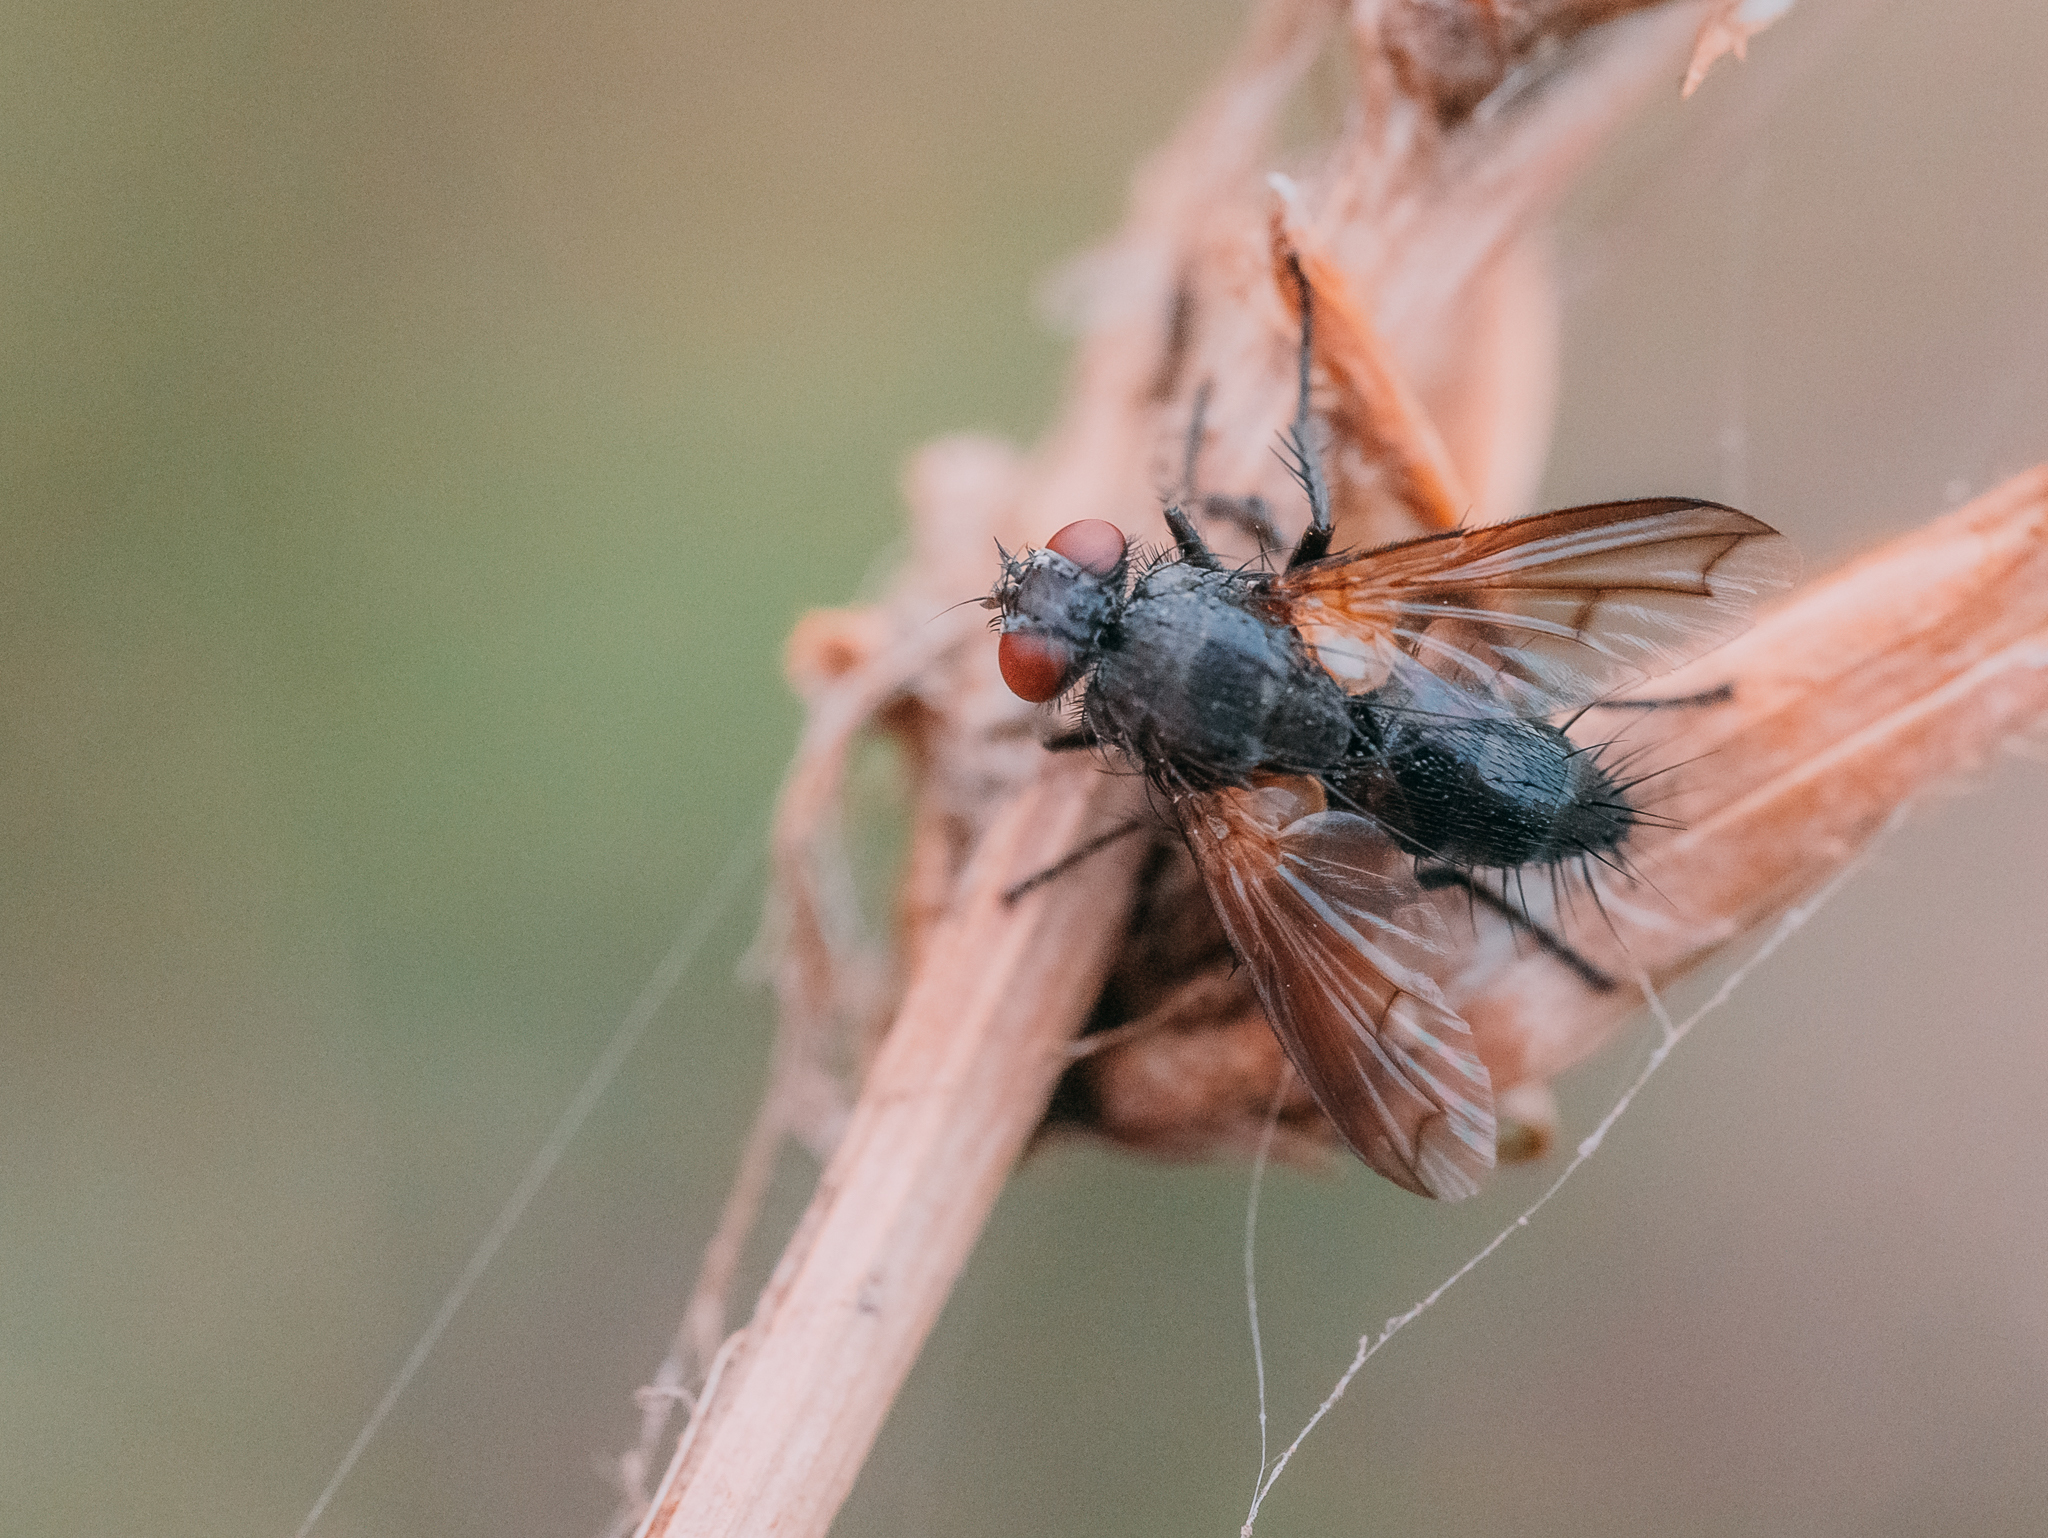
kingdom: Animalia
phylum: Arthropoda
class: Insecta
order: Diptera
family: Tachinidae
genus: Periscepsia
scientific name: Periscepsia latifrons
